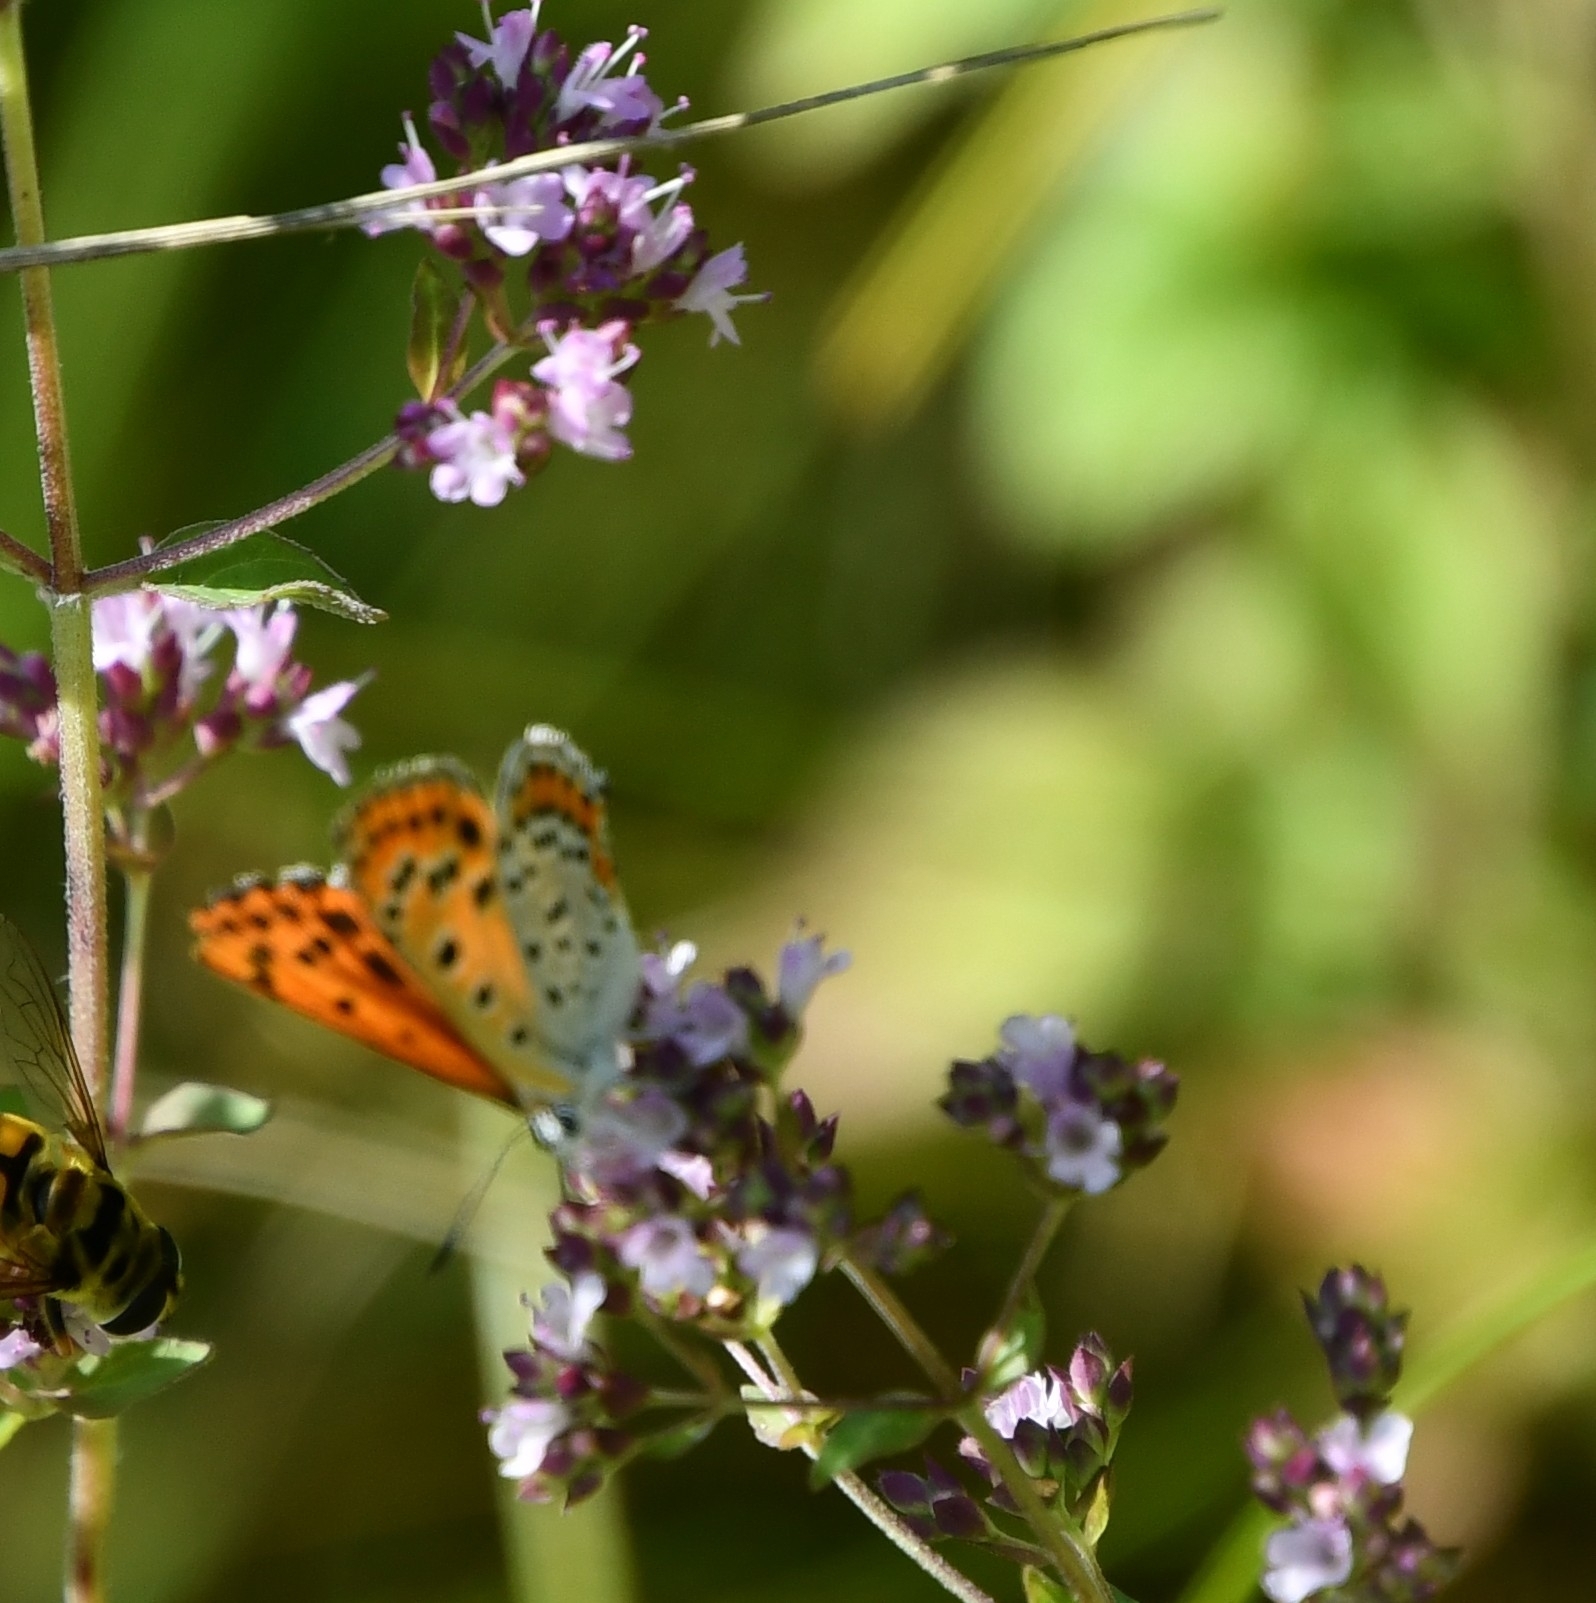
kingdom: Animalia
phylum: Arthropoda
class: Insecta
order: Lepidoptera
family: Lycaenidae
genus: Thersamonia
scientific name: Thersamonia thersamon
